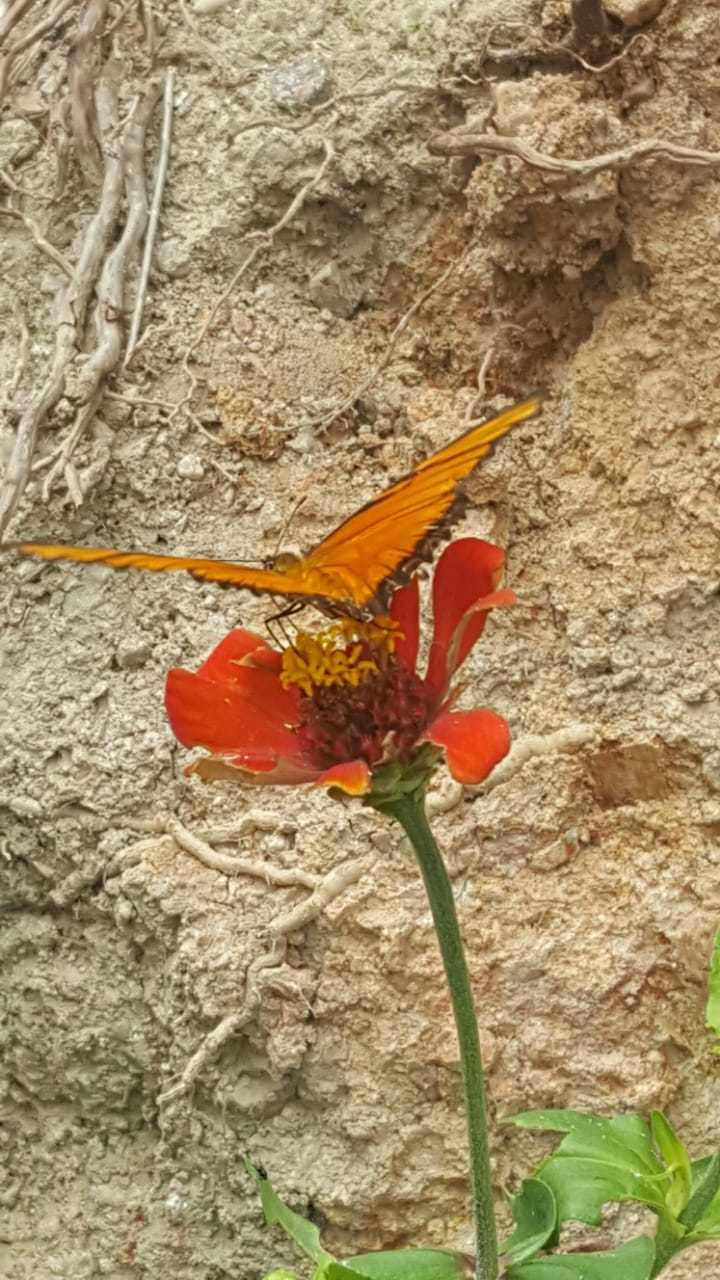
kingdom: Animalia
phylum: Arthropoda
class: Insecta
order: Lepidoptera
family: Nymphalidae
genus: Dione
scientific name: Dione juno
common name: Juno silverspot
